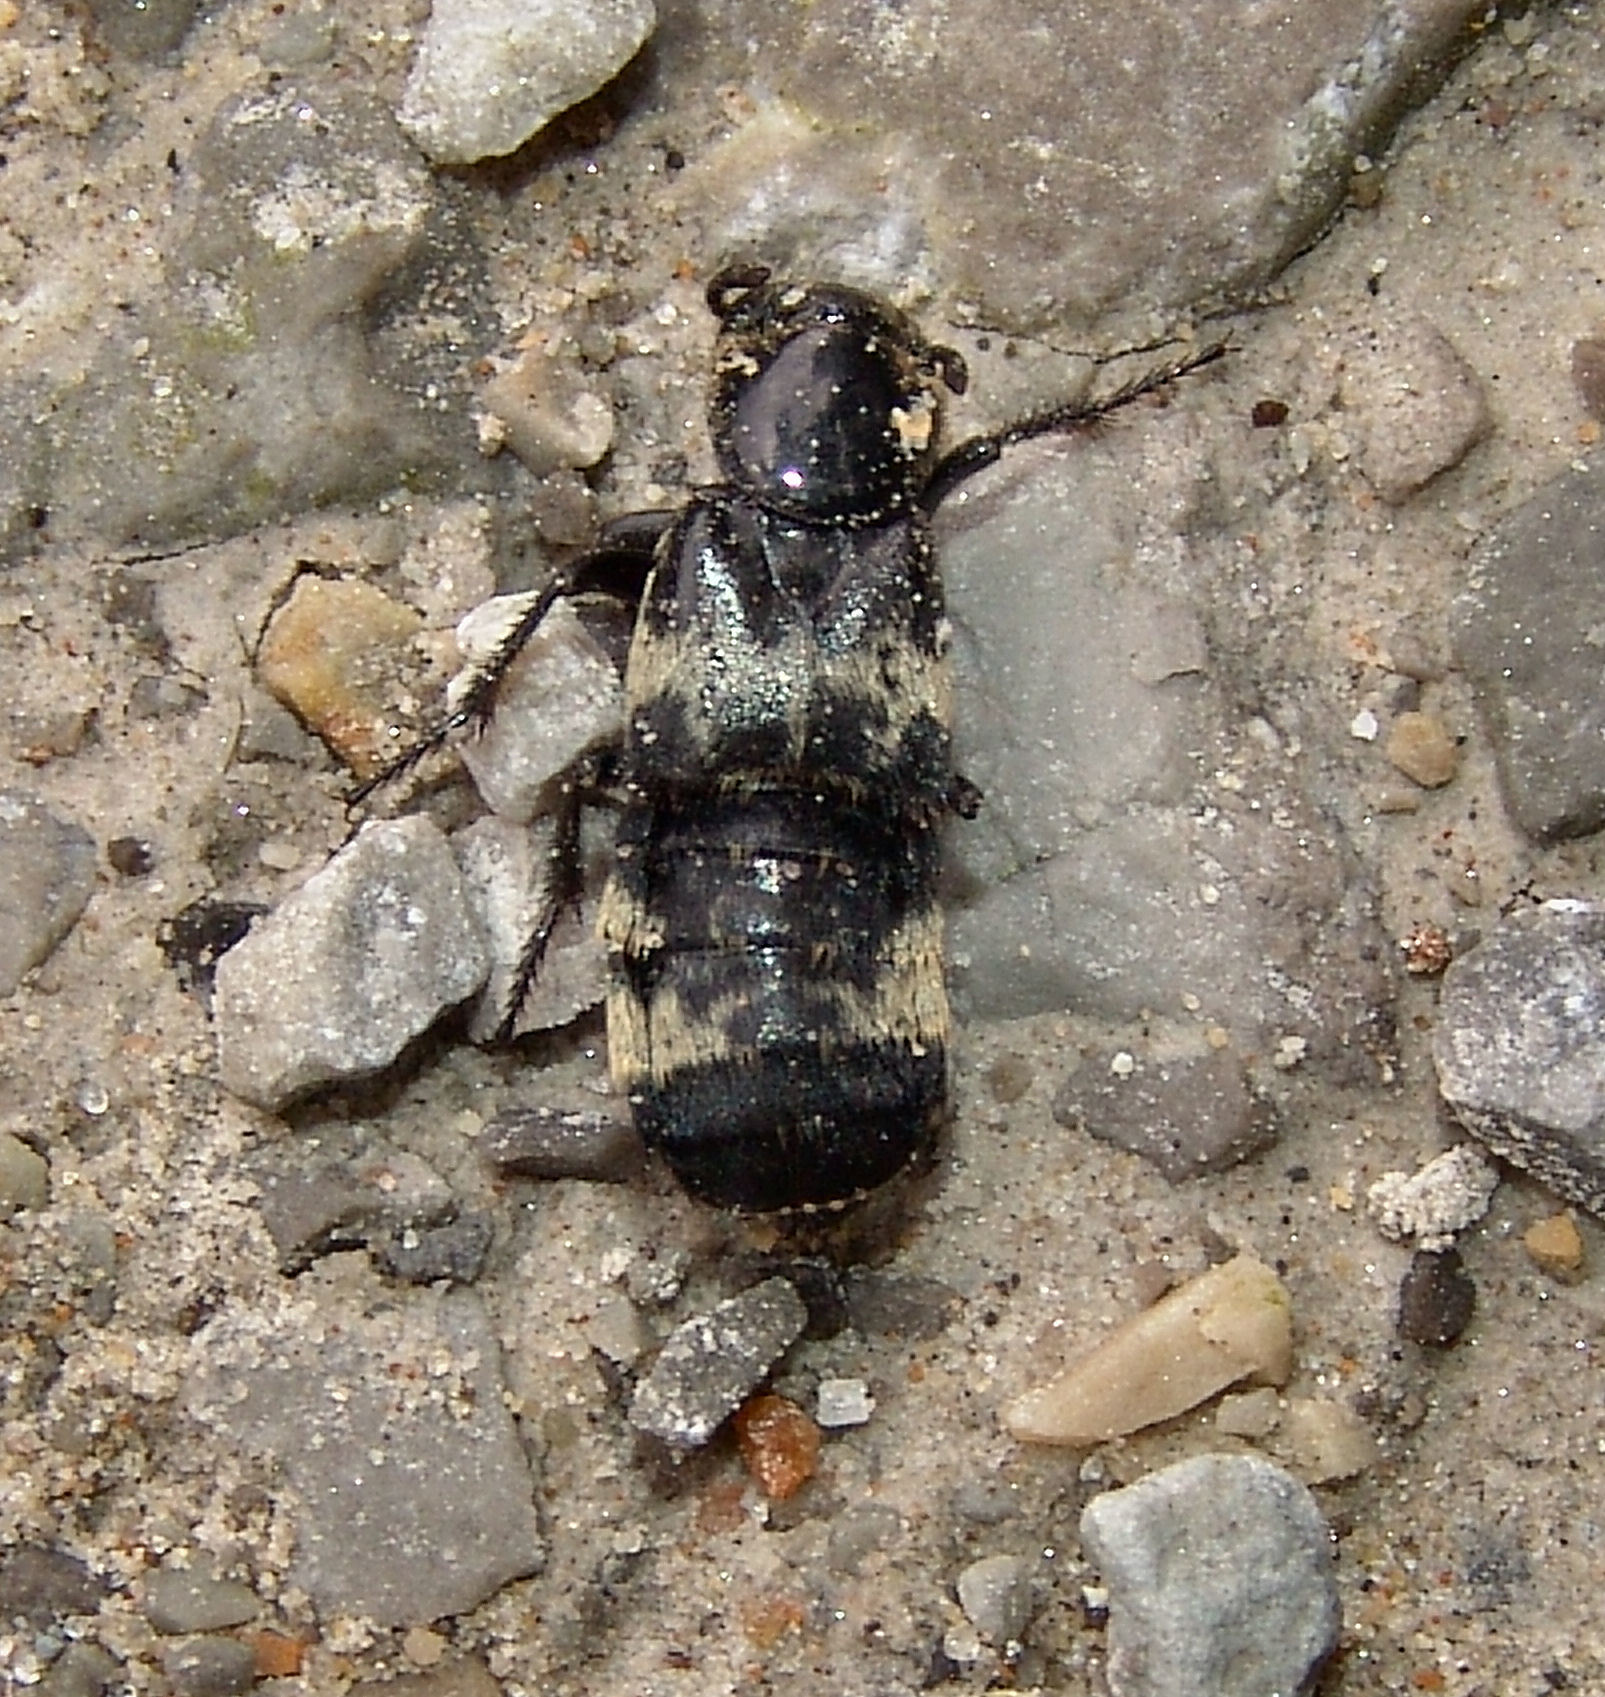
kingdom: Animalia
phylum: Arthropoda
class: Insecta
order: Coleoptera
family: Staphylinidae
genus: Creophilus
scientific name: Creophilus maxillosus
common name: Hairy rove beetle
